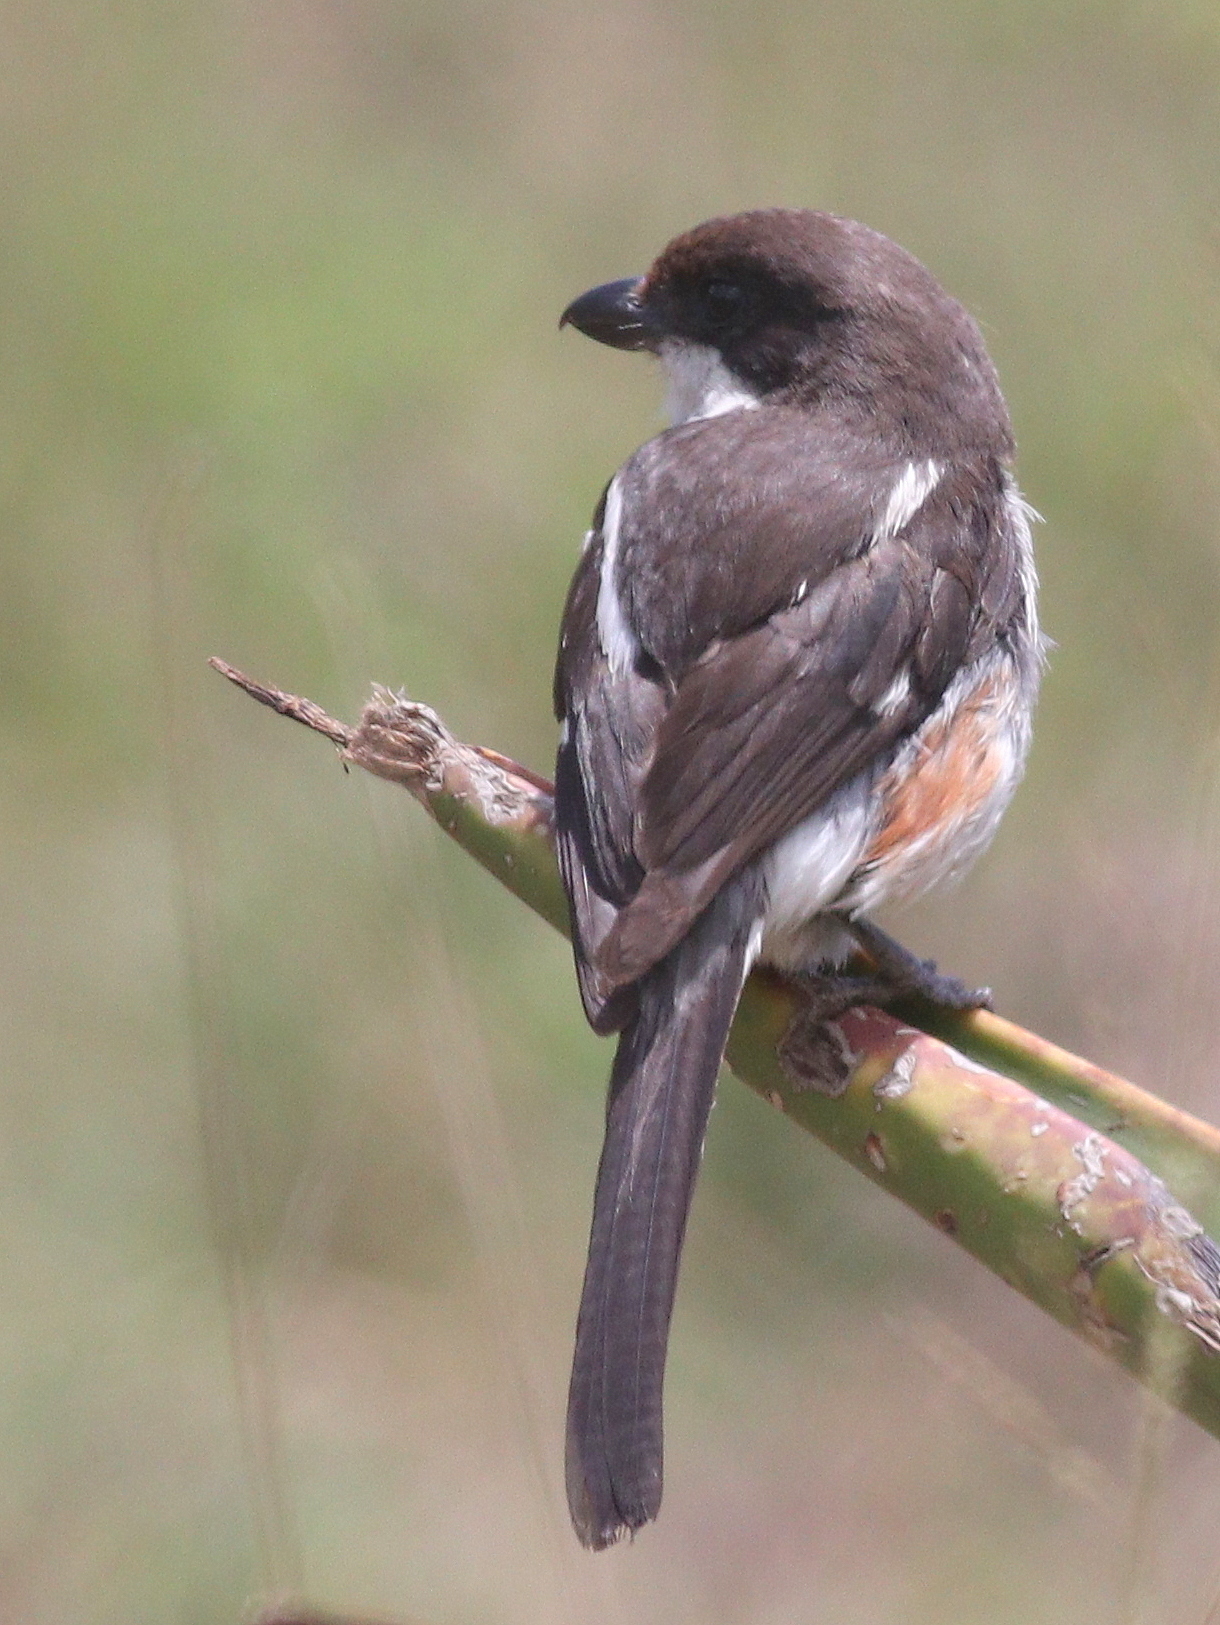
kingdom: Animalia
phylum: Chordata
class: Aves
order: Passeriformes
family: Laniidae
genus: Lanius
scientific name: Lanius collaris
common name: Southern fiscal
